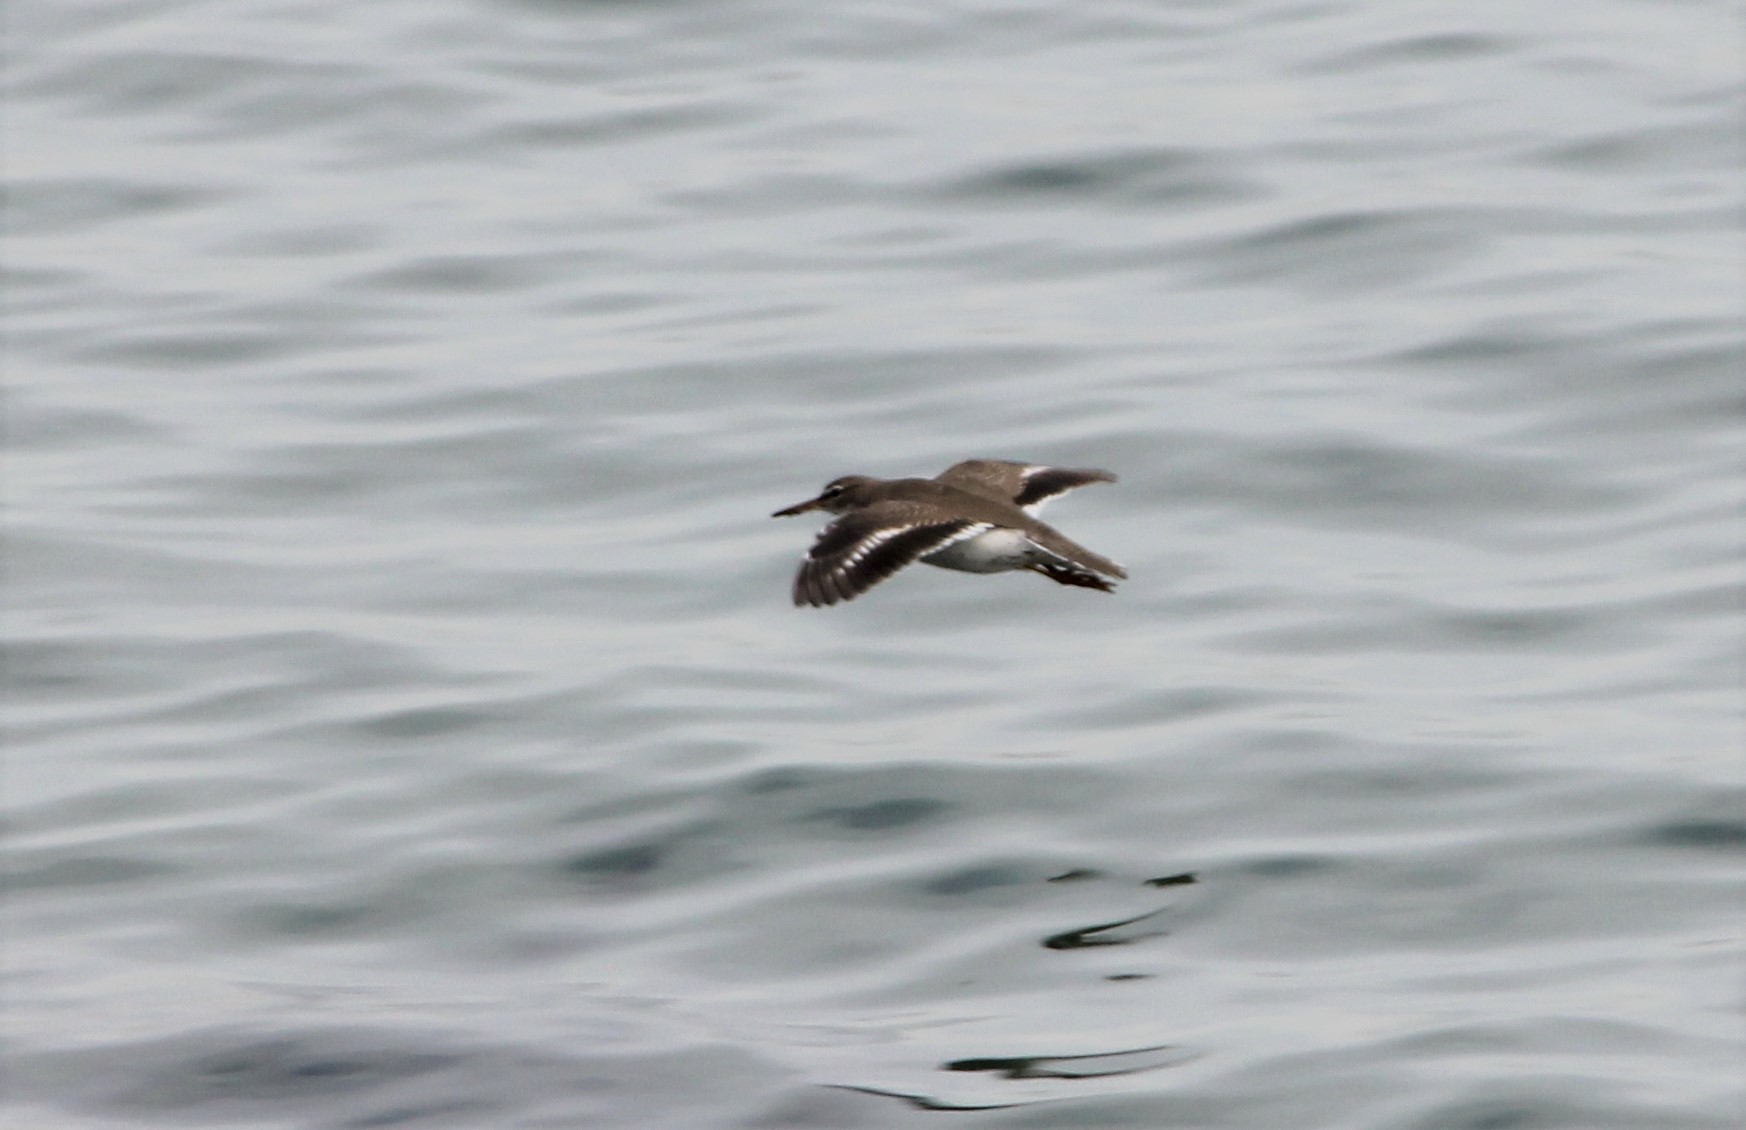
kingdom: Animalia
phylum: Chordata
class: Aves
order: Charadriiformes
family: Scolopacidae
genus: Actitis
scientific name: Actitis macularius
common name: Spotted sandpiper
